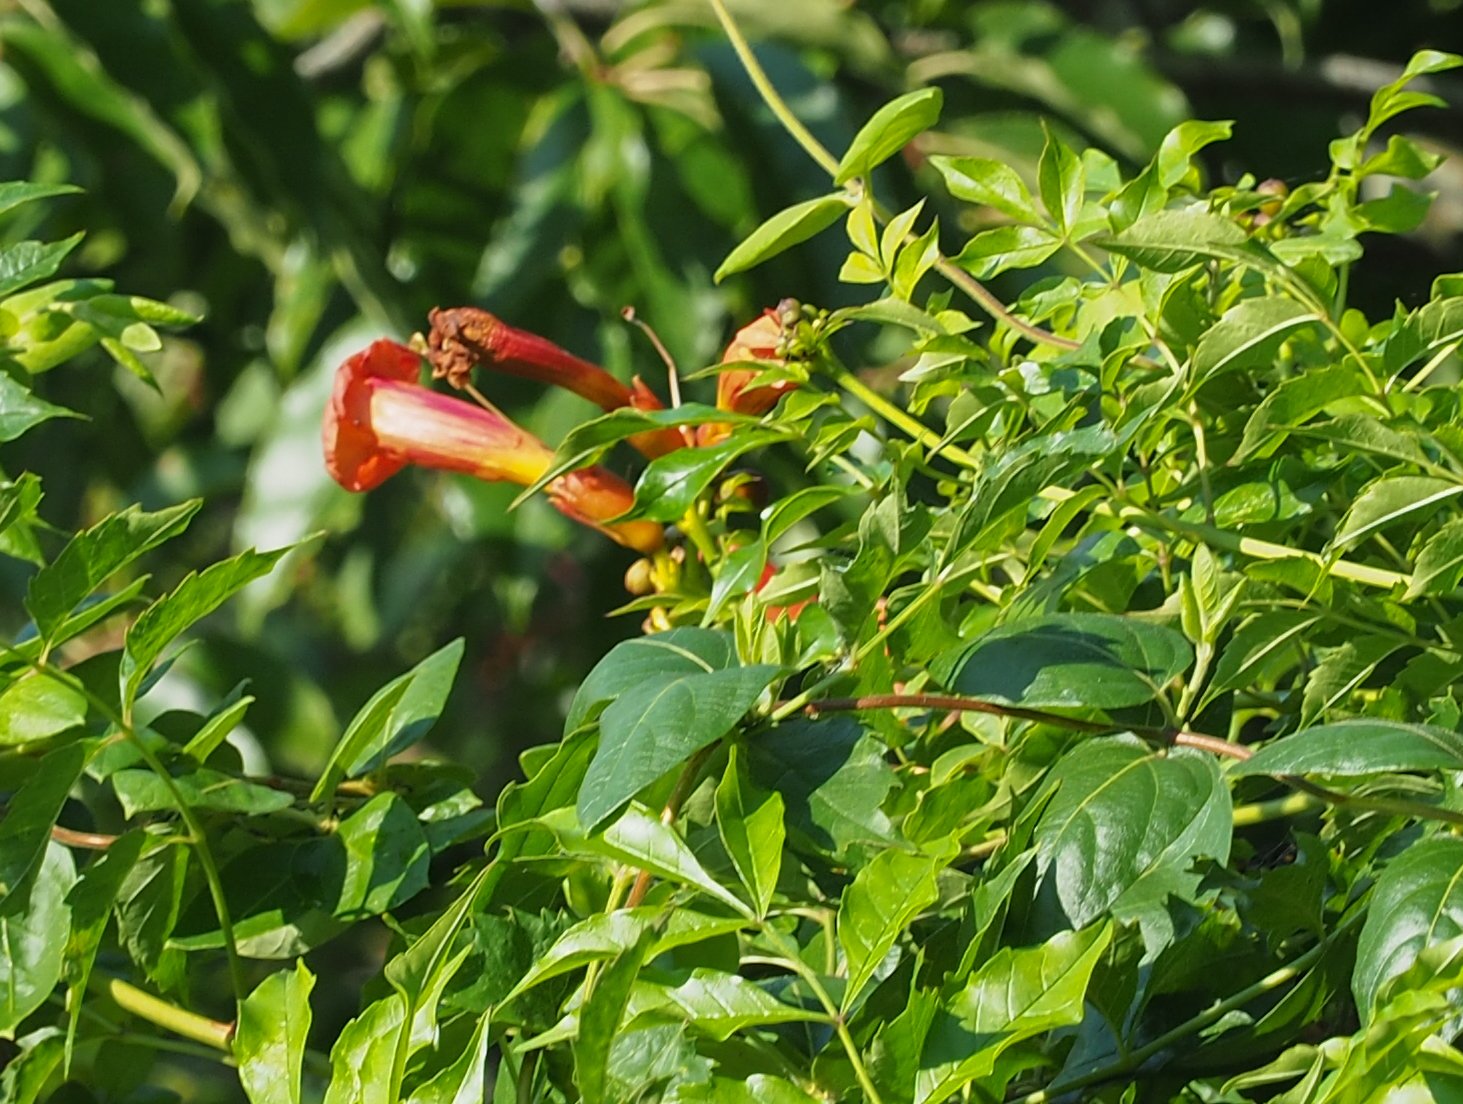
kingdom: Plantae
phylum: Tracheophyta
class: Magnoliopsida
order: Lamiales
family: Bignoniaceae
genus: Campsis
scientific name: Campsis radicans
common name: Trumpet-creeper
